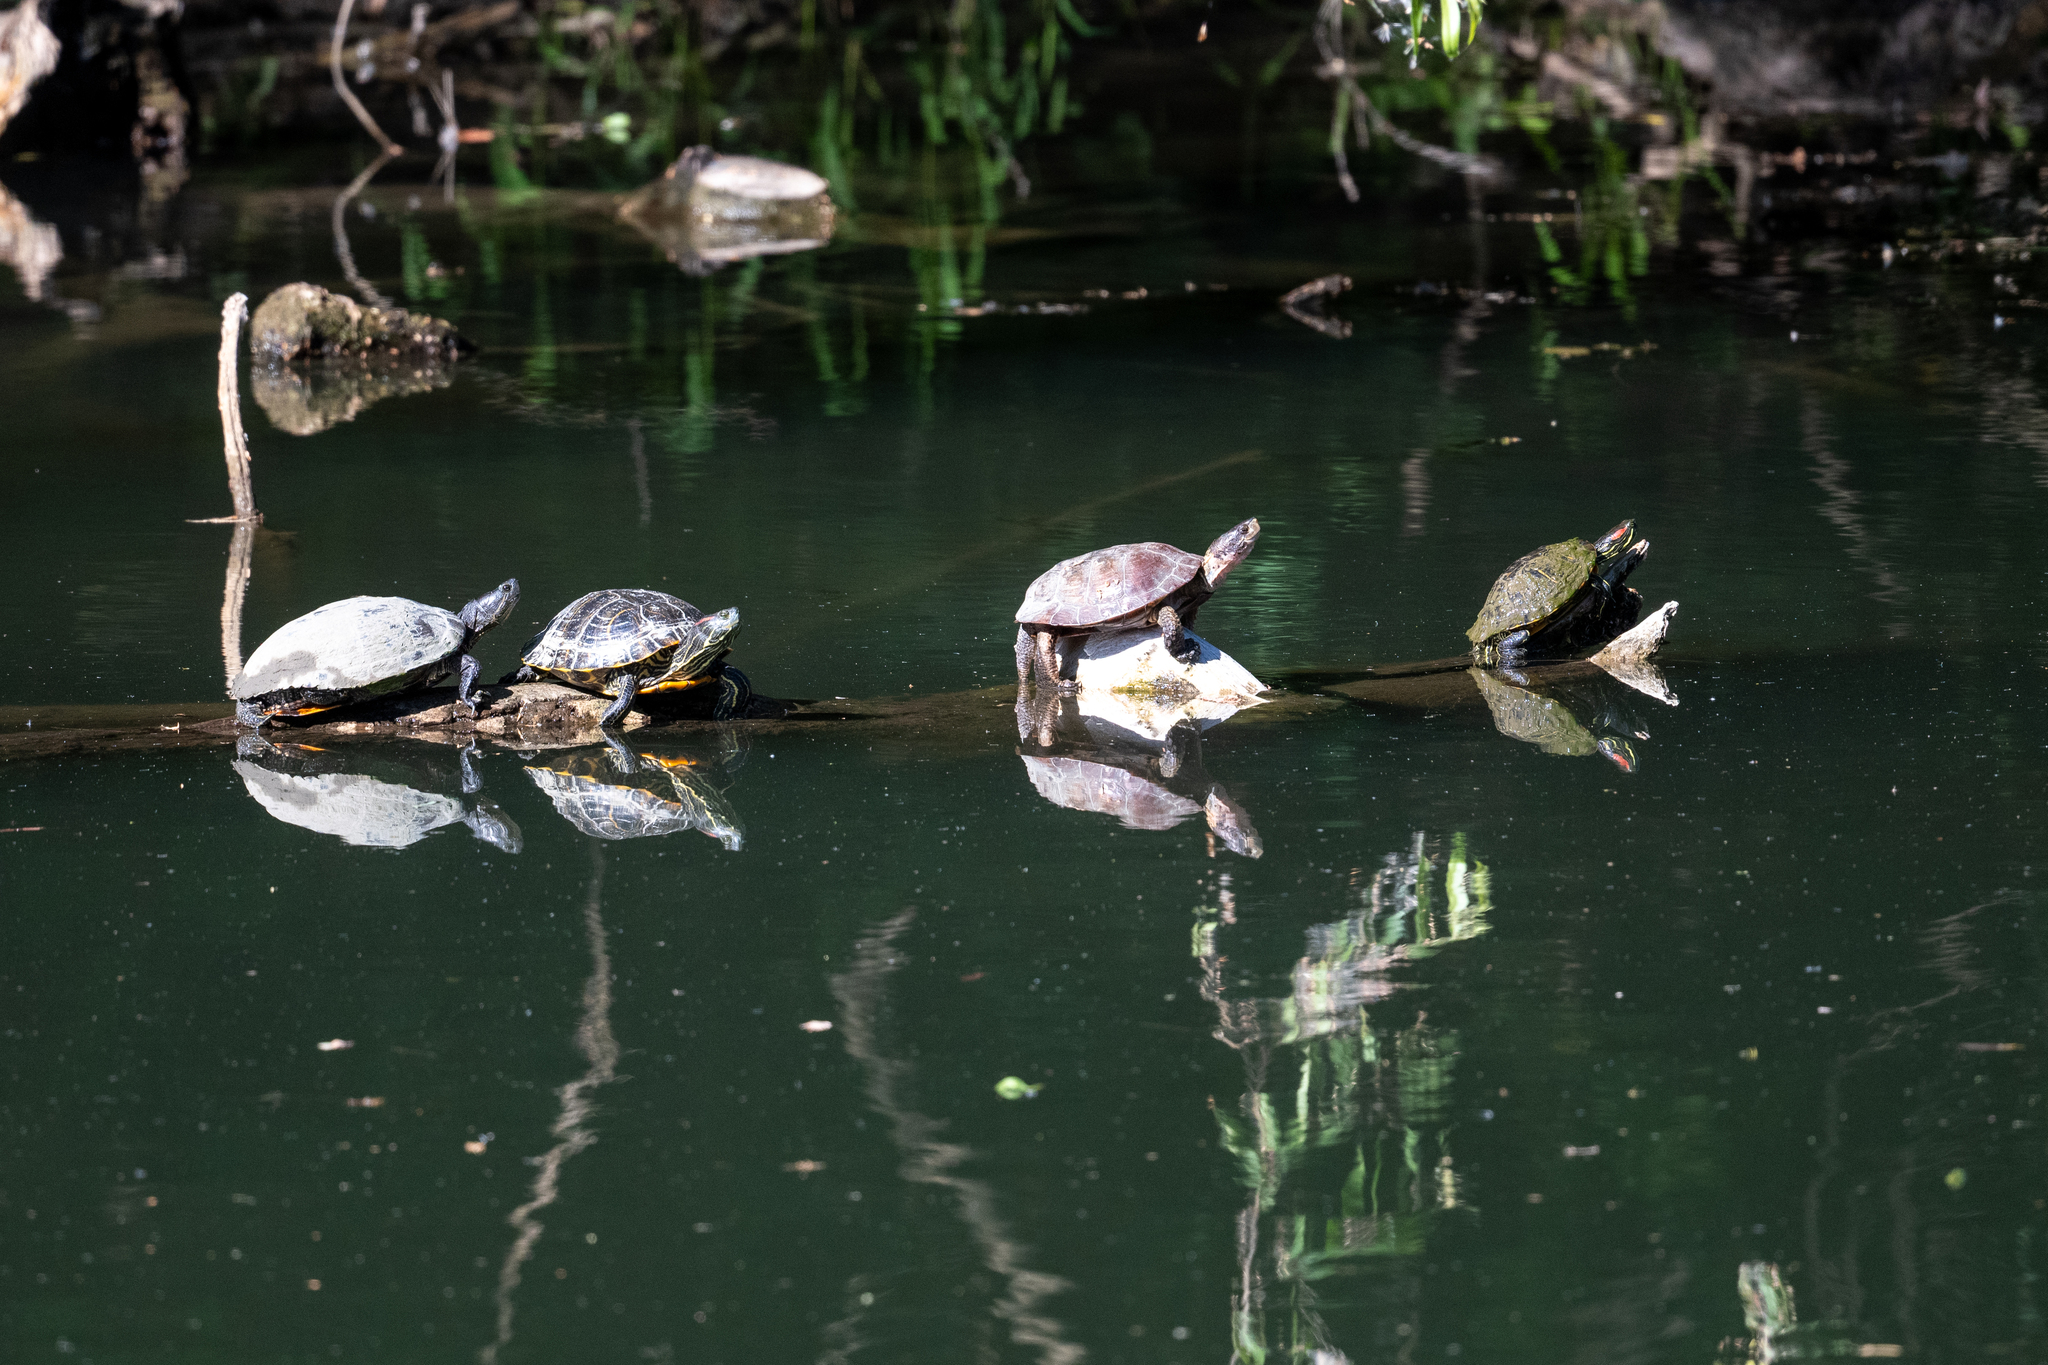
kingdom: Animalia
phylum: Chordata
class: Testudines
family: Emydidae
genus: Trachemys
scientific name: Trachemys scripta
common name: Slider
